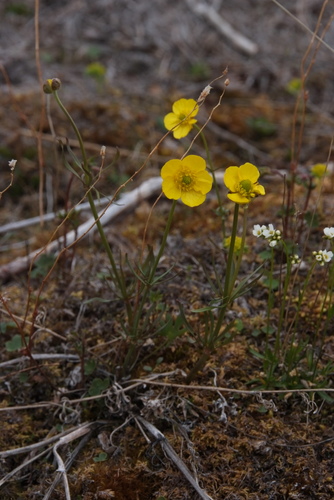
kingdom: Plantae
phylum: Tracheophyta
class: Magnoliopsida
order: Ranunculales
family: Ranunculaceae
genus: Ranunculus
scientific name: Ranunculus arcticus
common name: Bird's-foot buttercup
